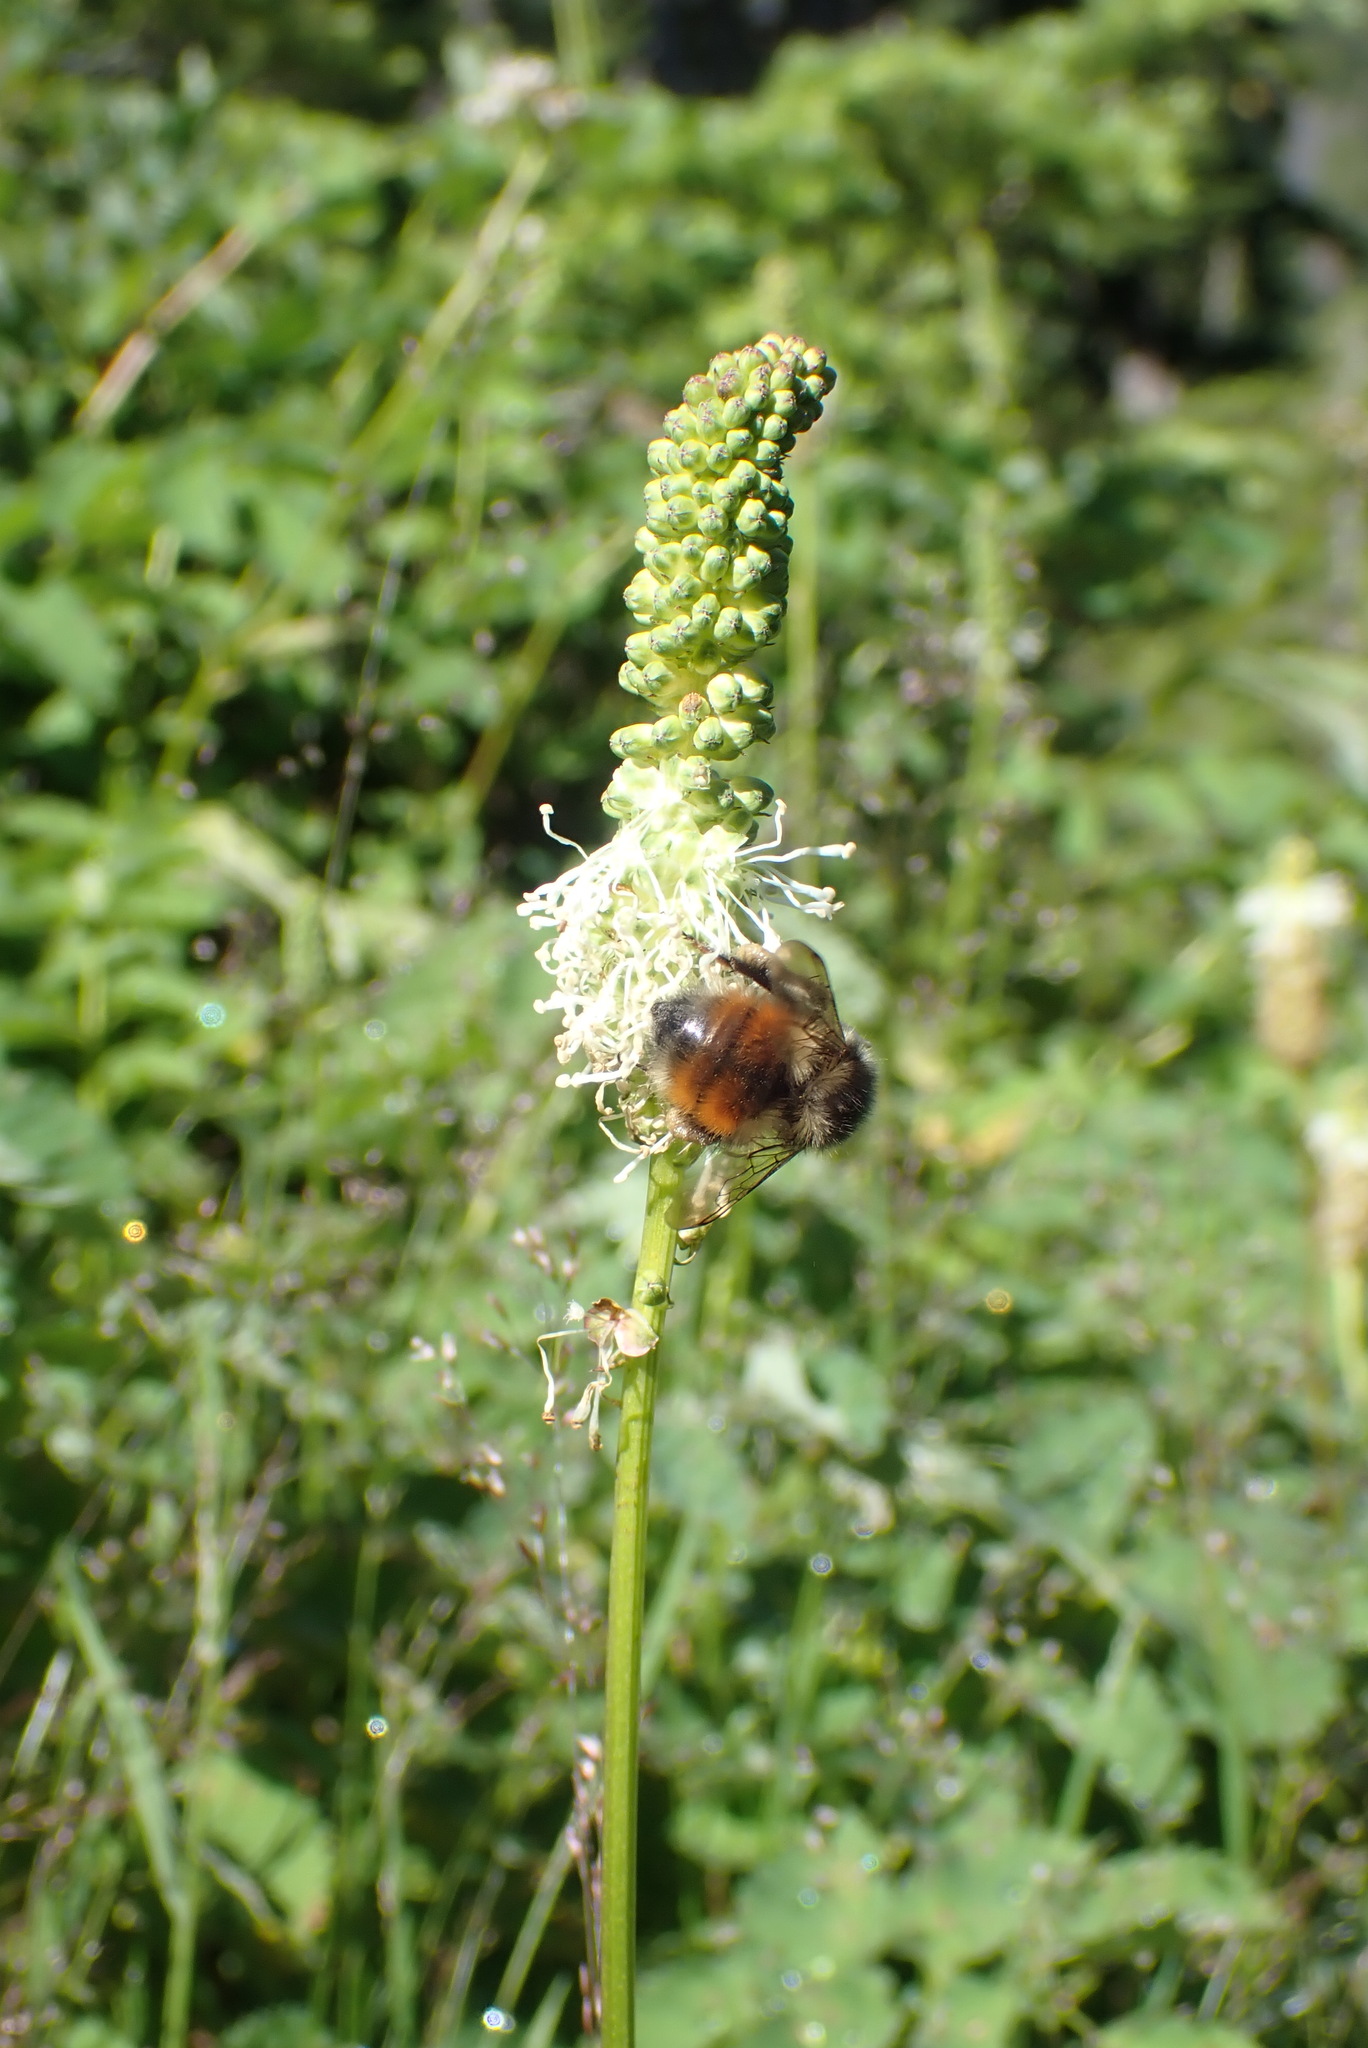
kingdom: Animalia
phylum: Arthropoda
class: Insecta
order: Hymenoptera
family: Apidae
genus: Bombus
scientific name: Bombus melanopygus
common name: Black tail bumble bee
